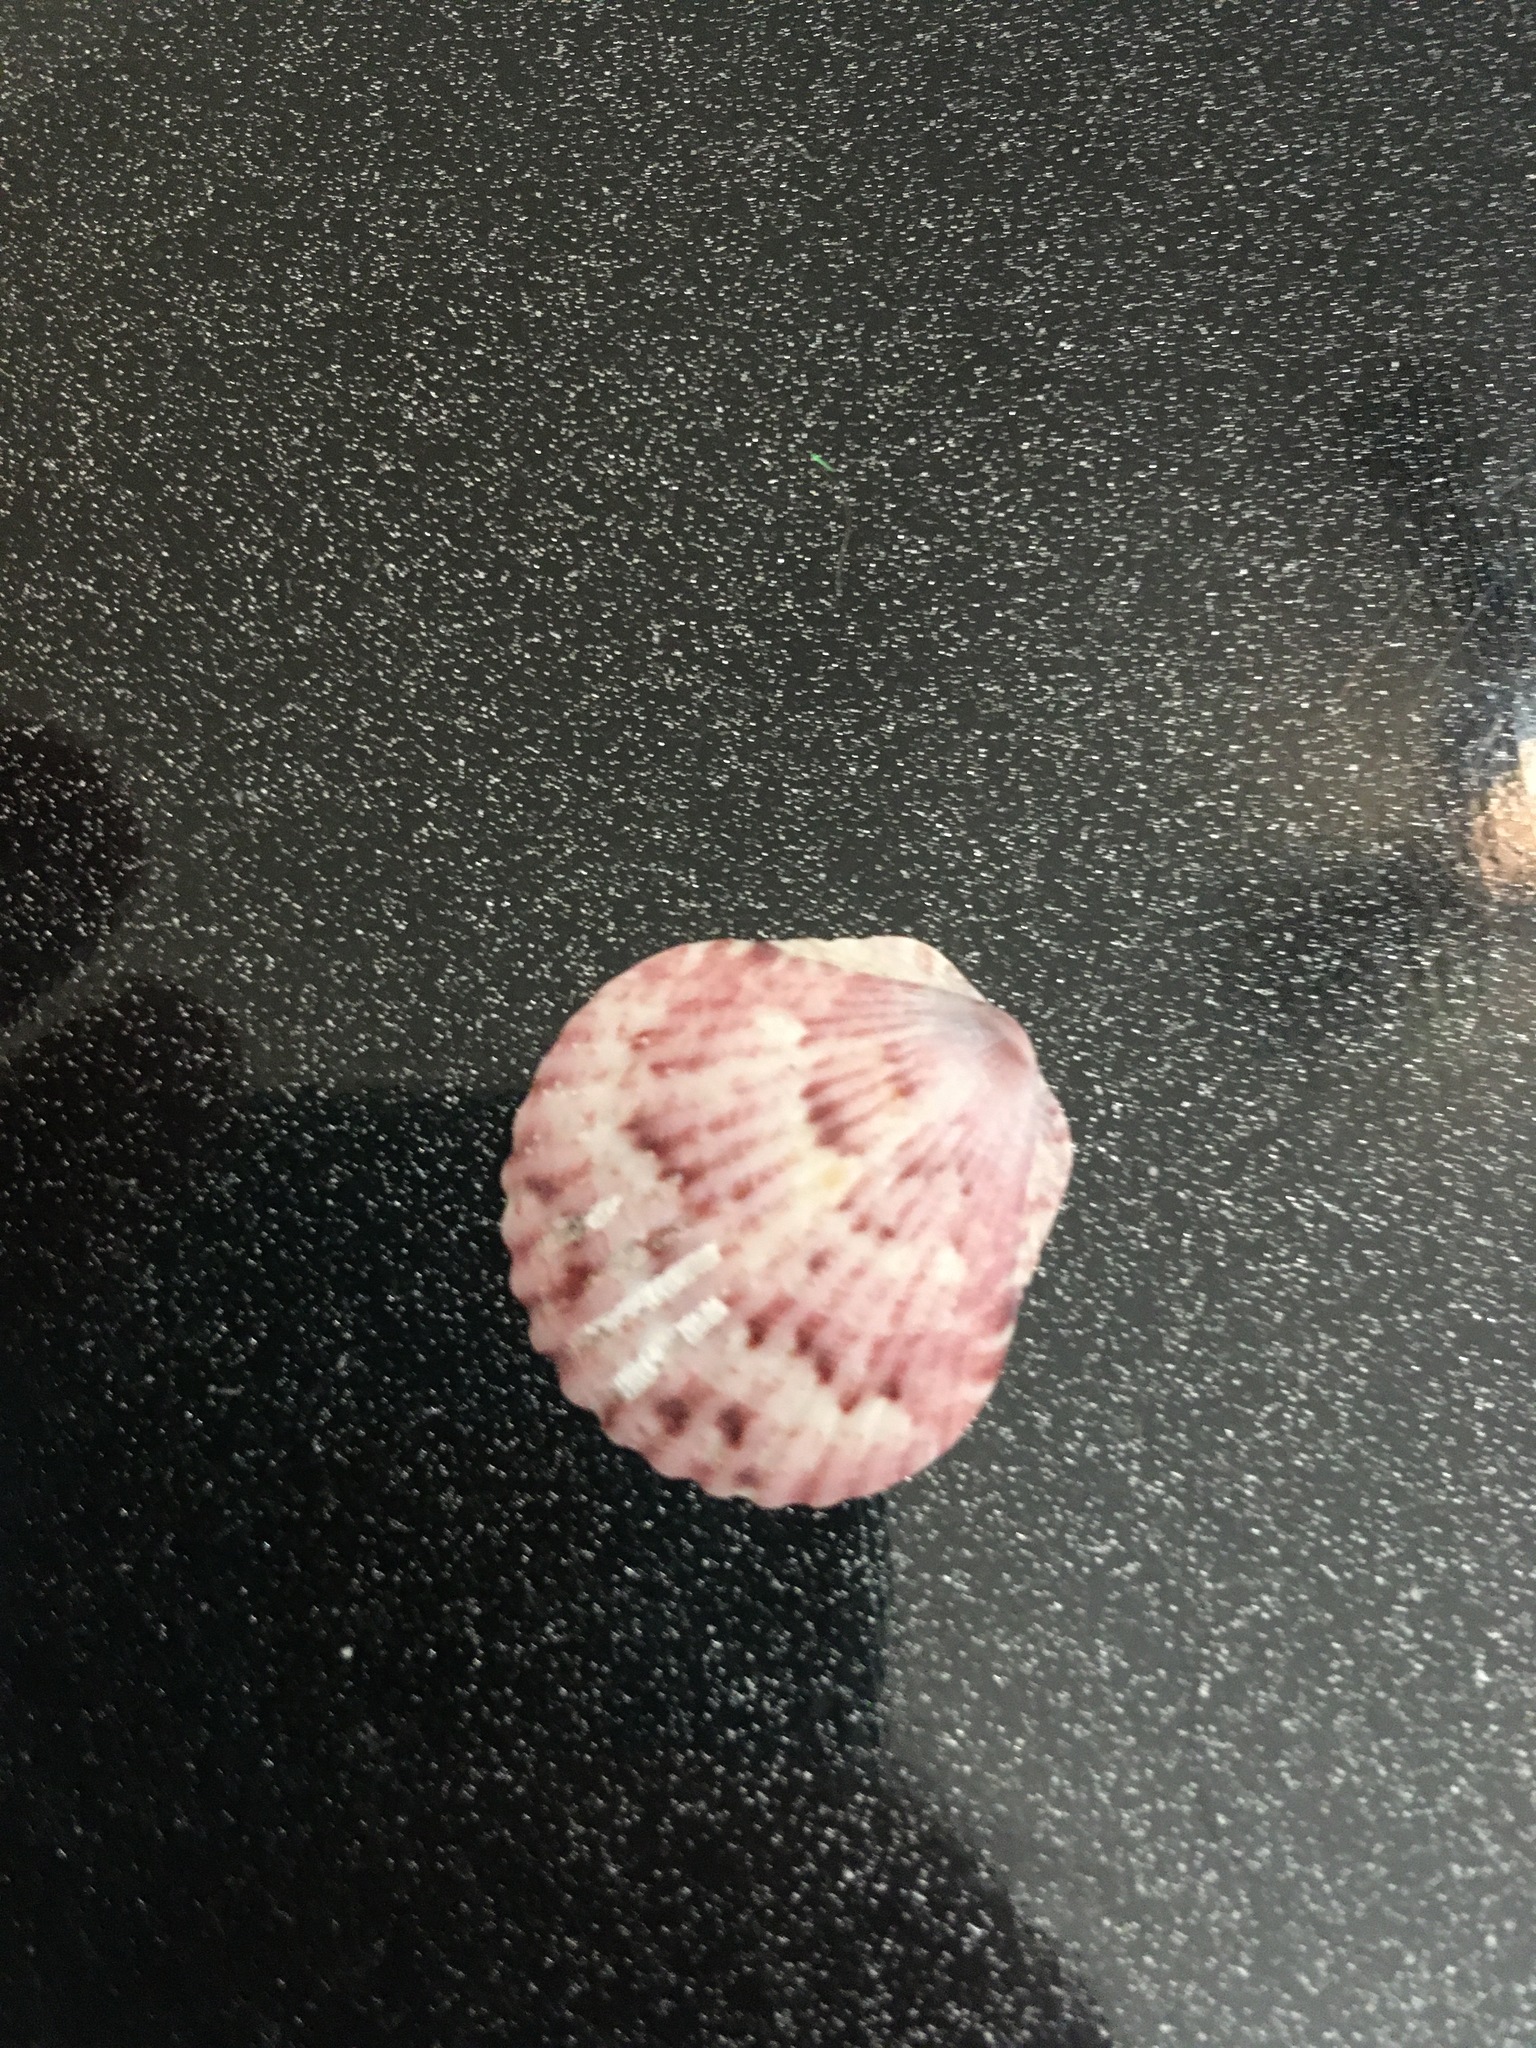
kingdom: Animalia
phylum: Mollusca
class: Bivalvia
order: Pectinida
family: Pectinidae
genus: Argopecten
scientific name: Argopecten gibbus
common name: Atlantic calico scallop
